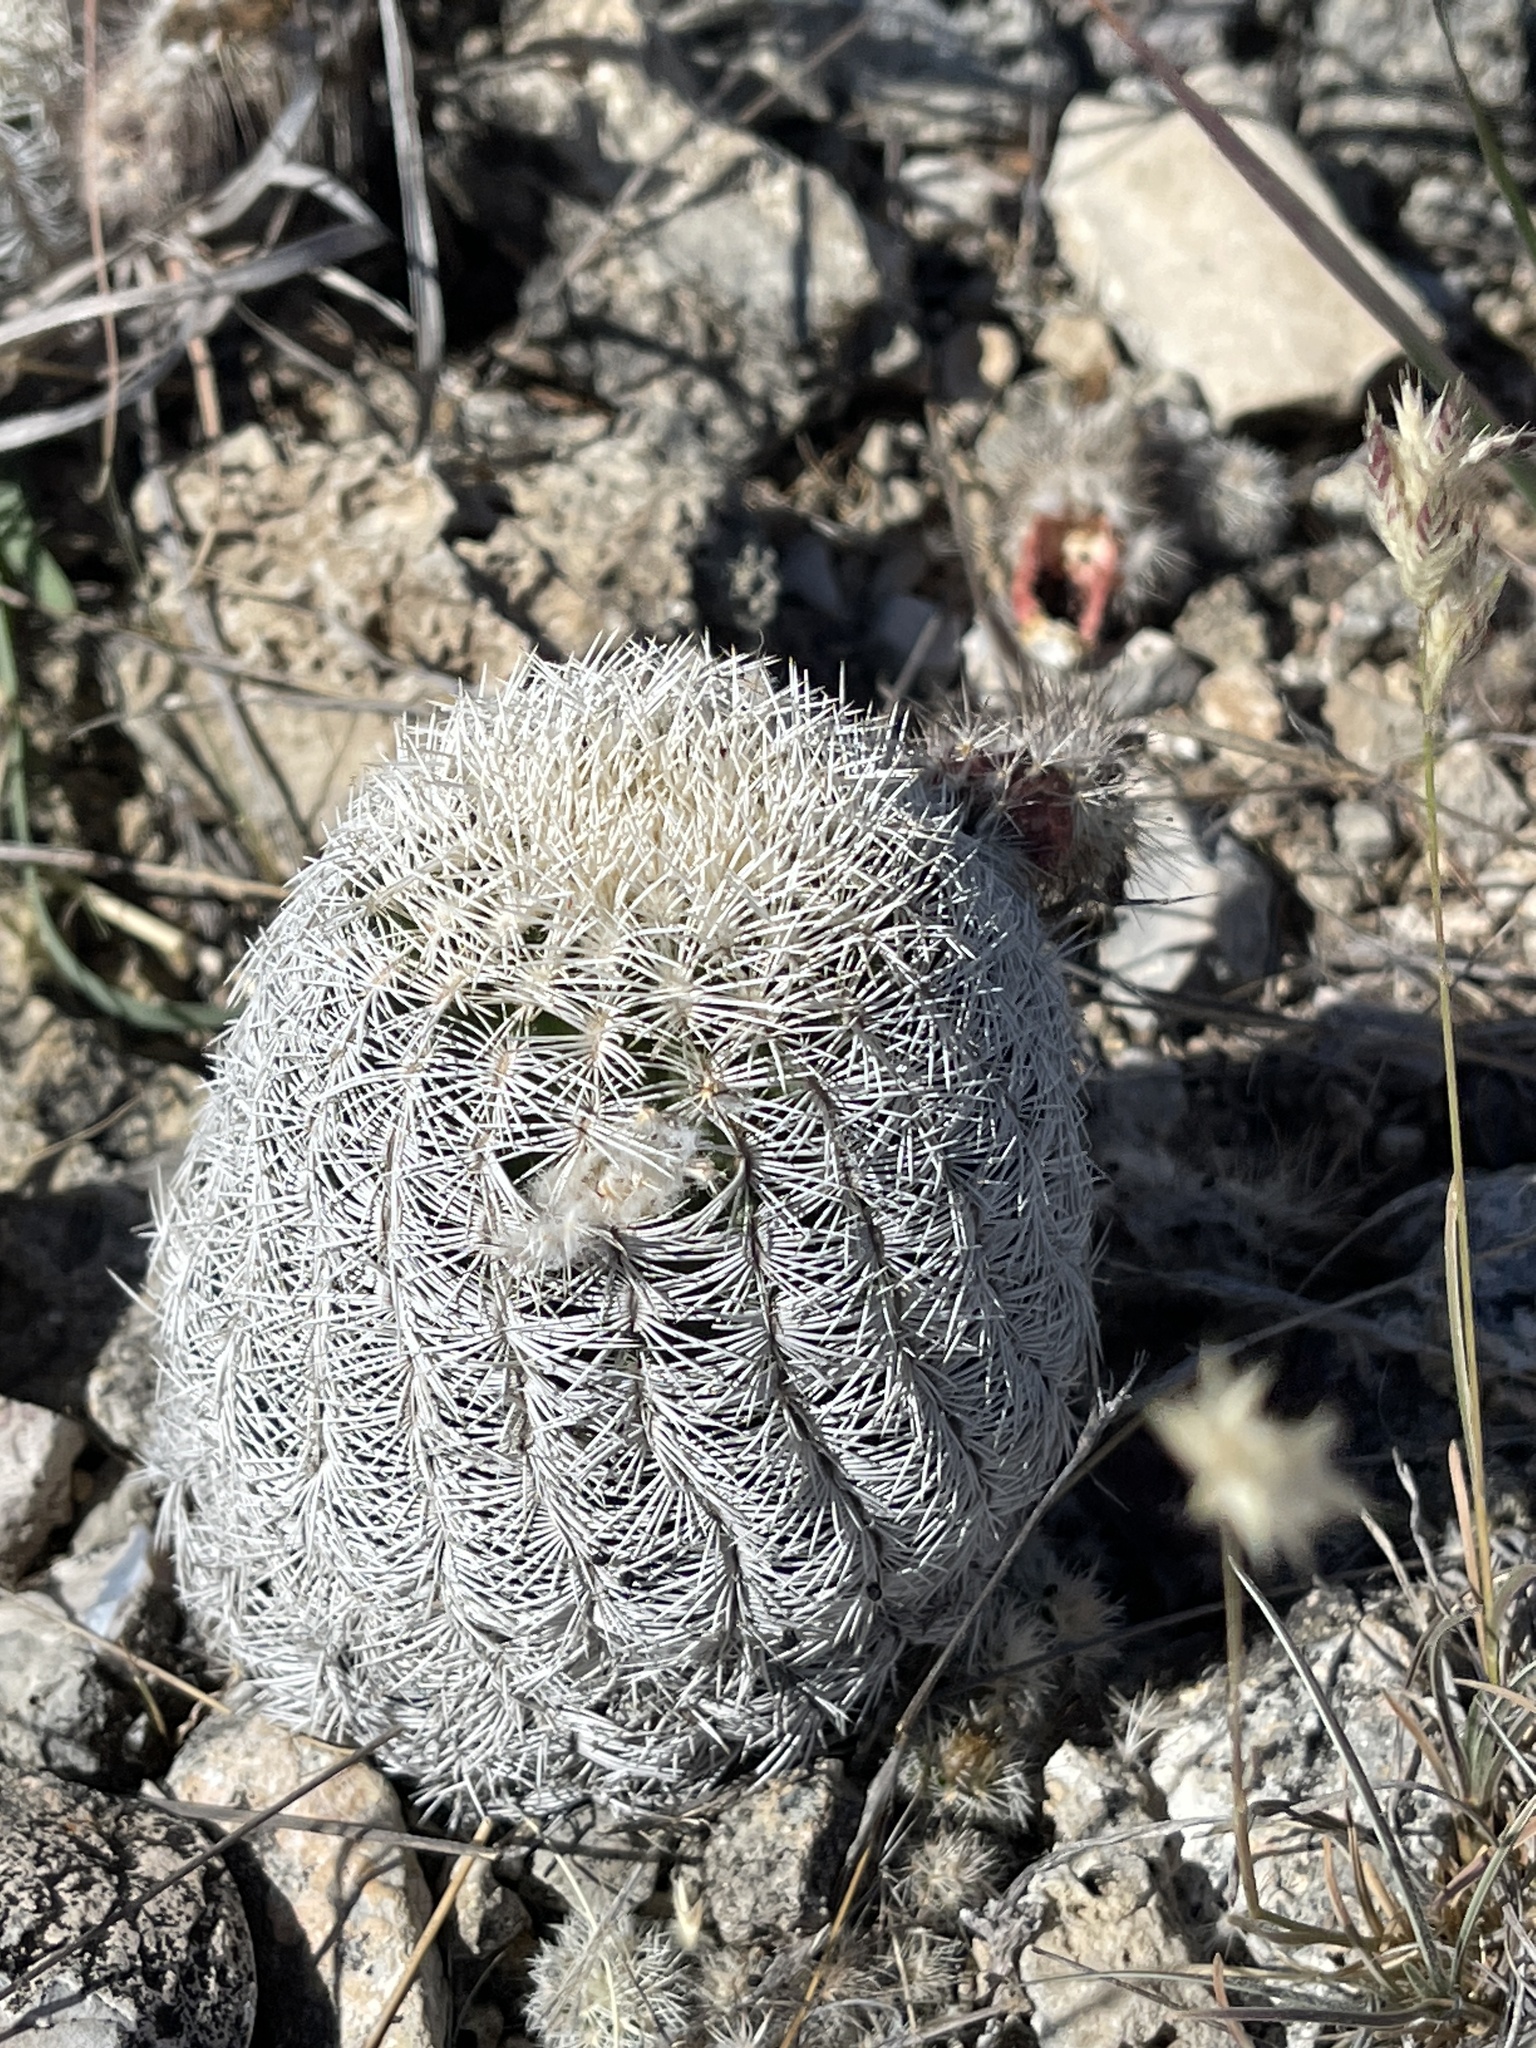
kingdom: Plantae
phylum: Tracheophyta
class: Magnoliopsida
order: Caryophyllales
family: Cactaceae
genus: Echinocereus
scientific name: Echinocereus reichenbachii
